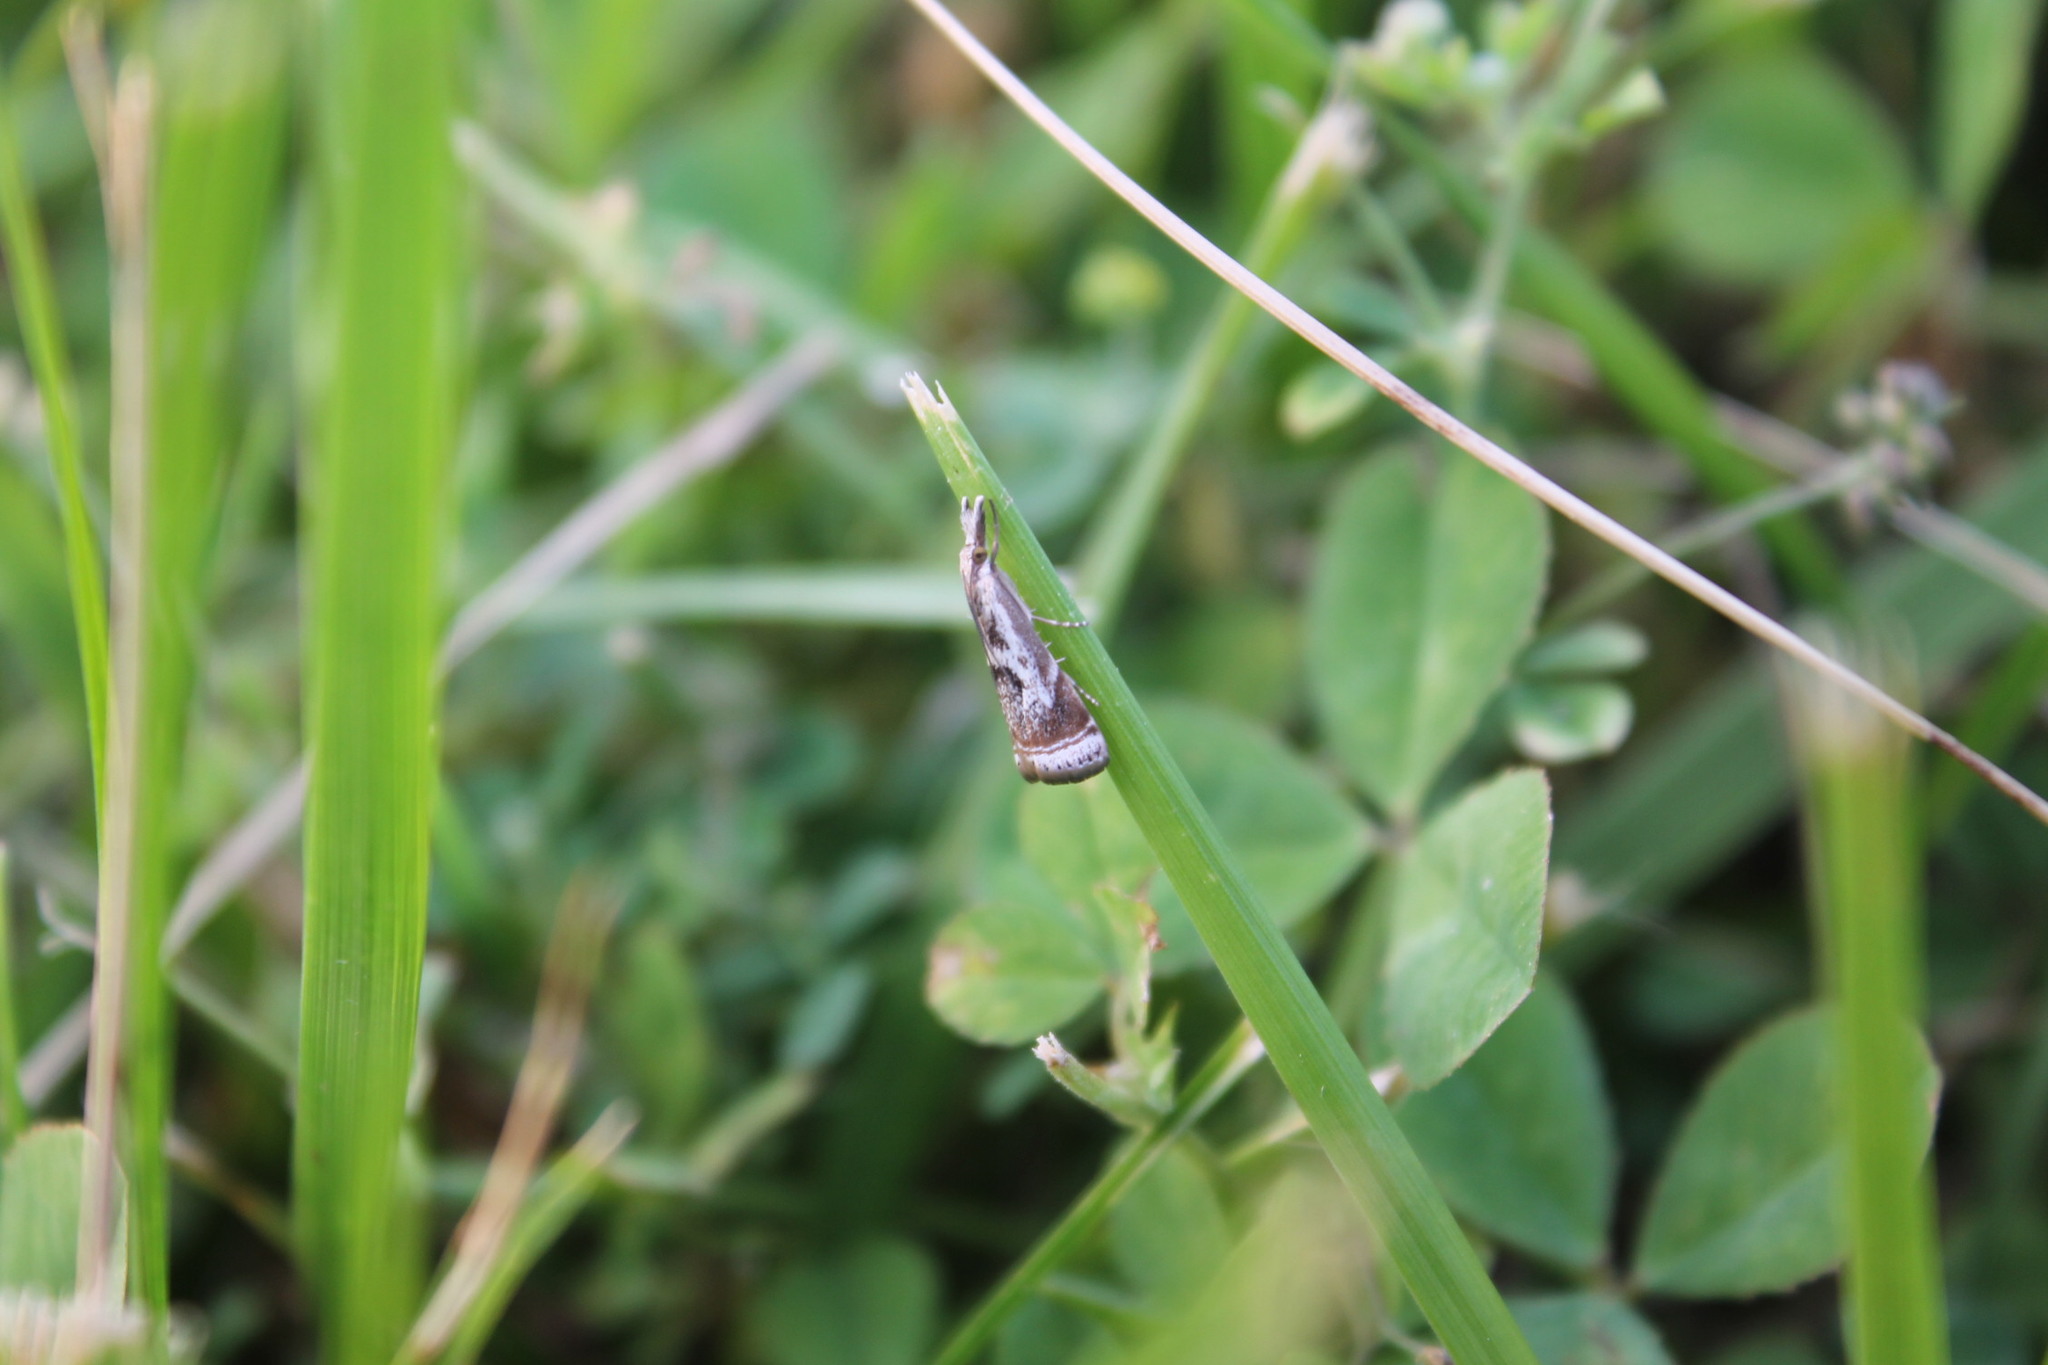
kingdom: Animalia
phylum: Arthropoda
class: Insecta
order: Lepidoptera
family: Crambidae
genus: Microcrambus
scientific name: Microcrambus elegans
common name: Elegant grass-veneer
